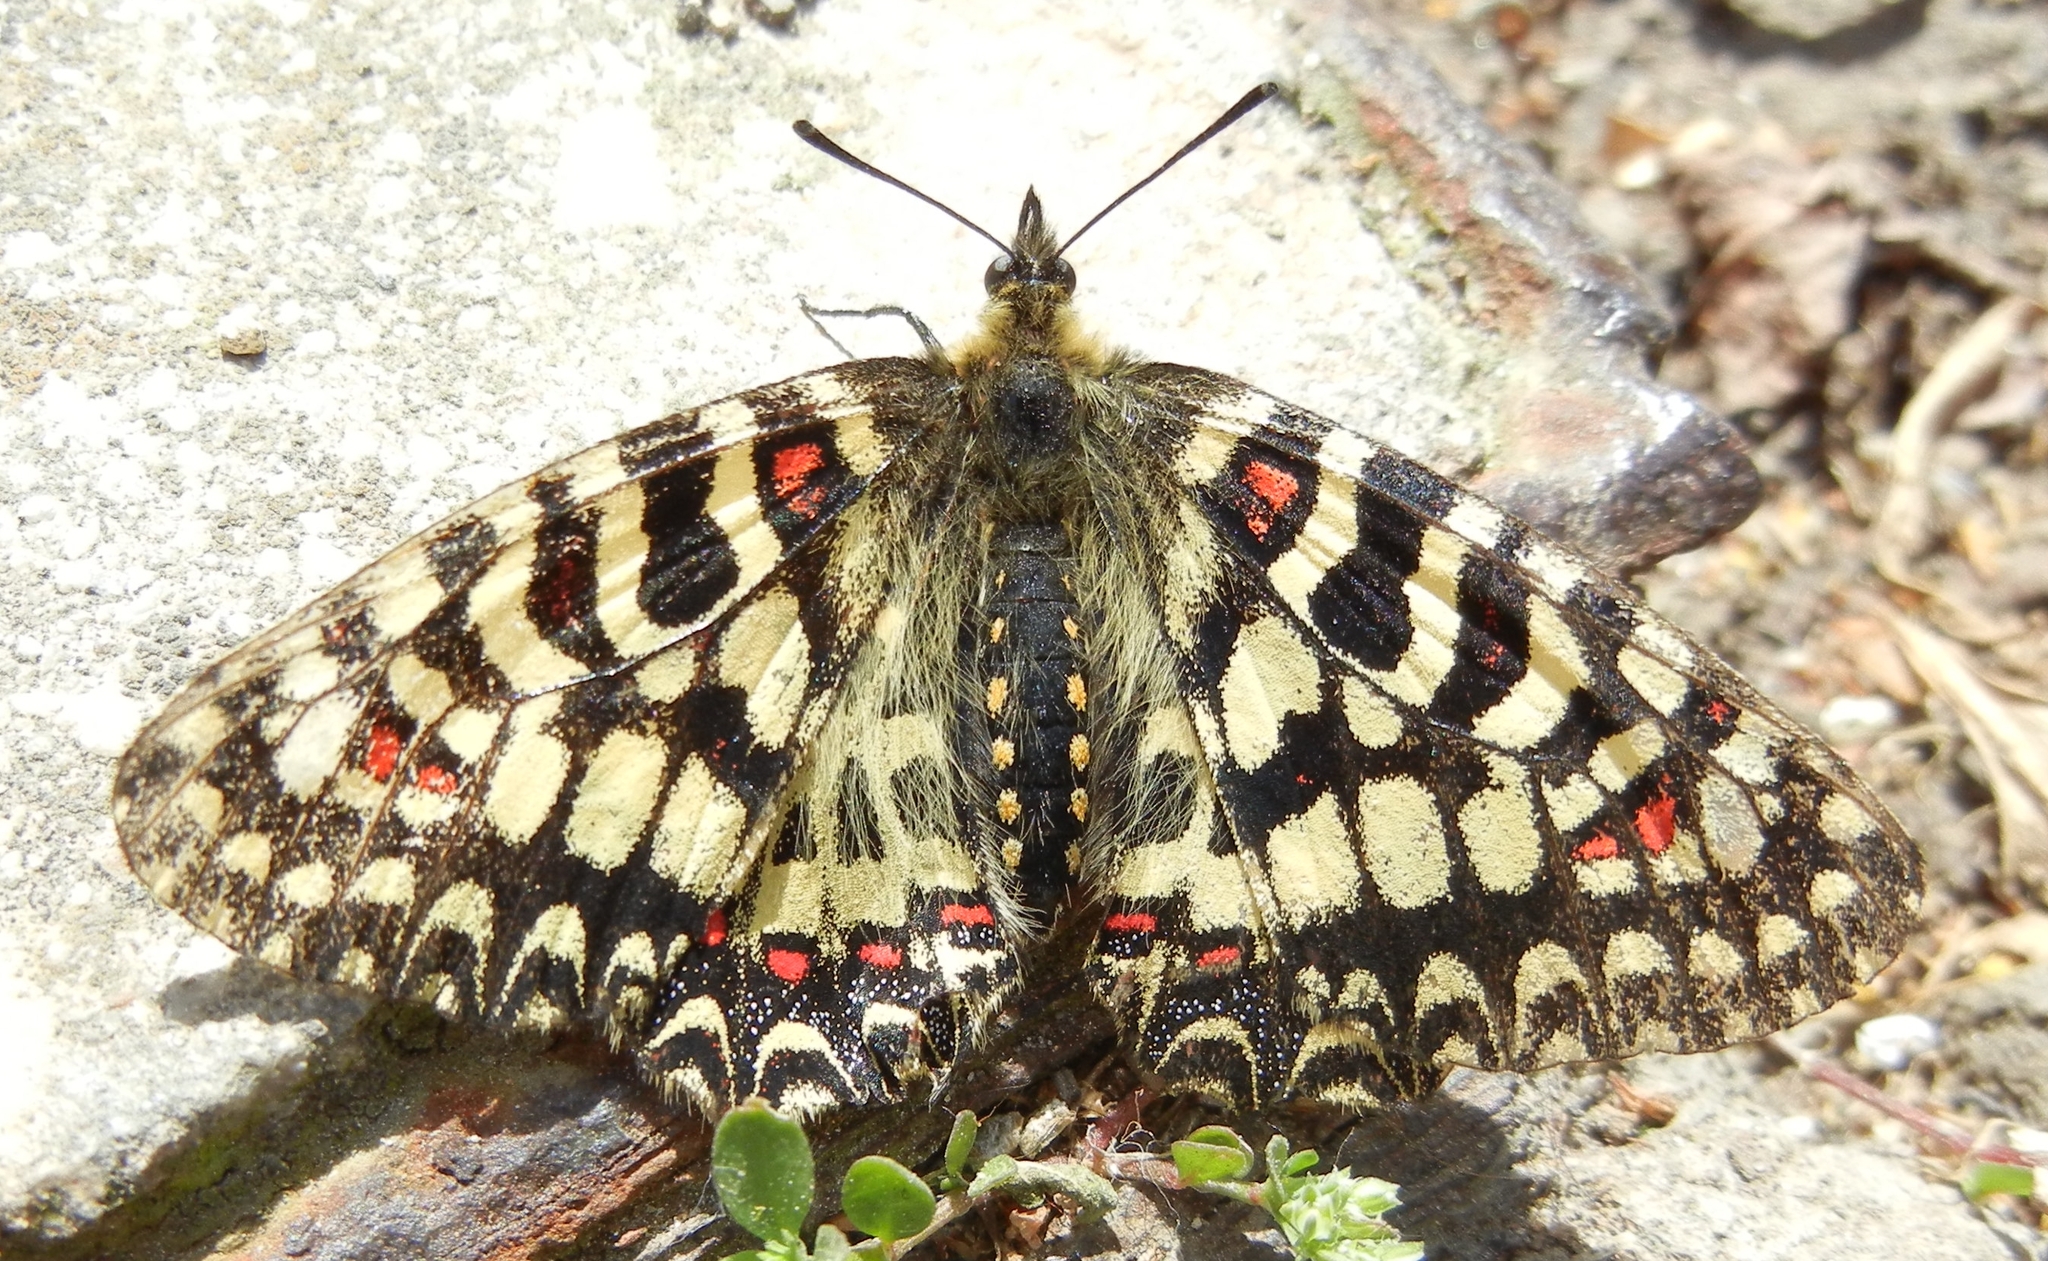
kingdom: Animalia
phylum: Arthropoda
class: Insecta
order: Lepidoptera
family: Papilionidae
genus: Zerynthia
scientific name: Zerynthia rumina
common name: Spanish festoon
